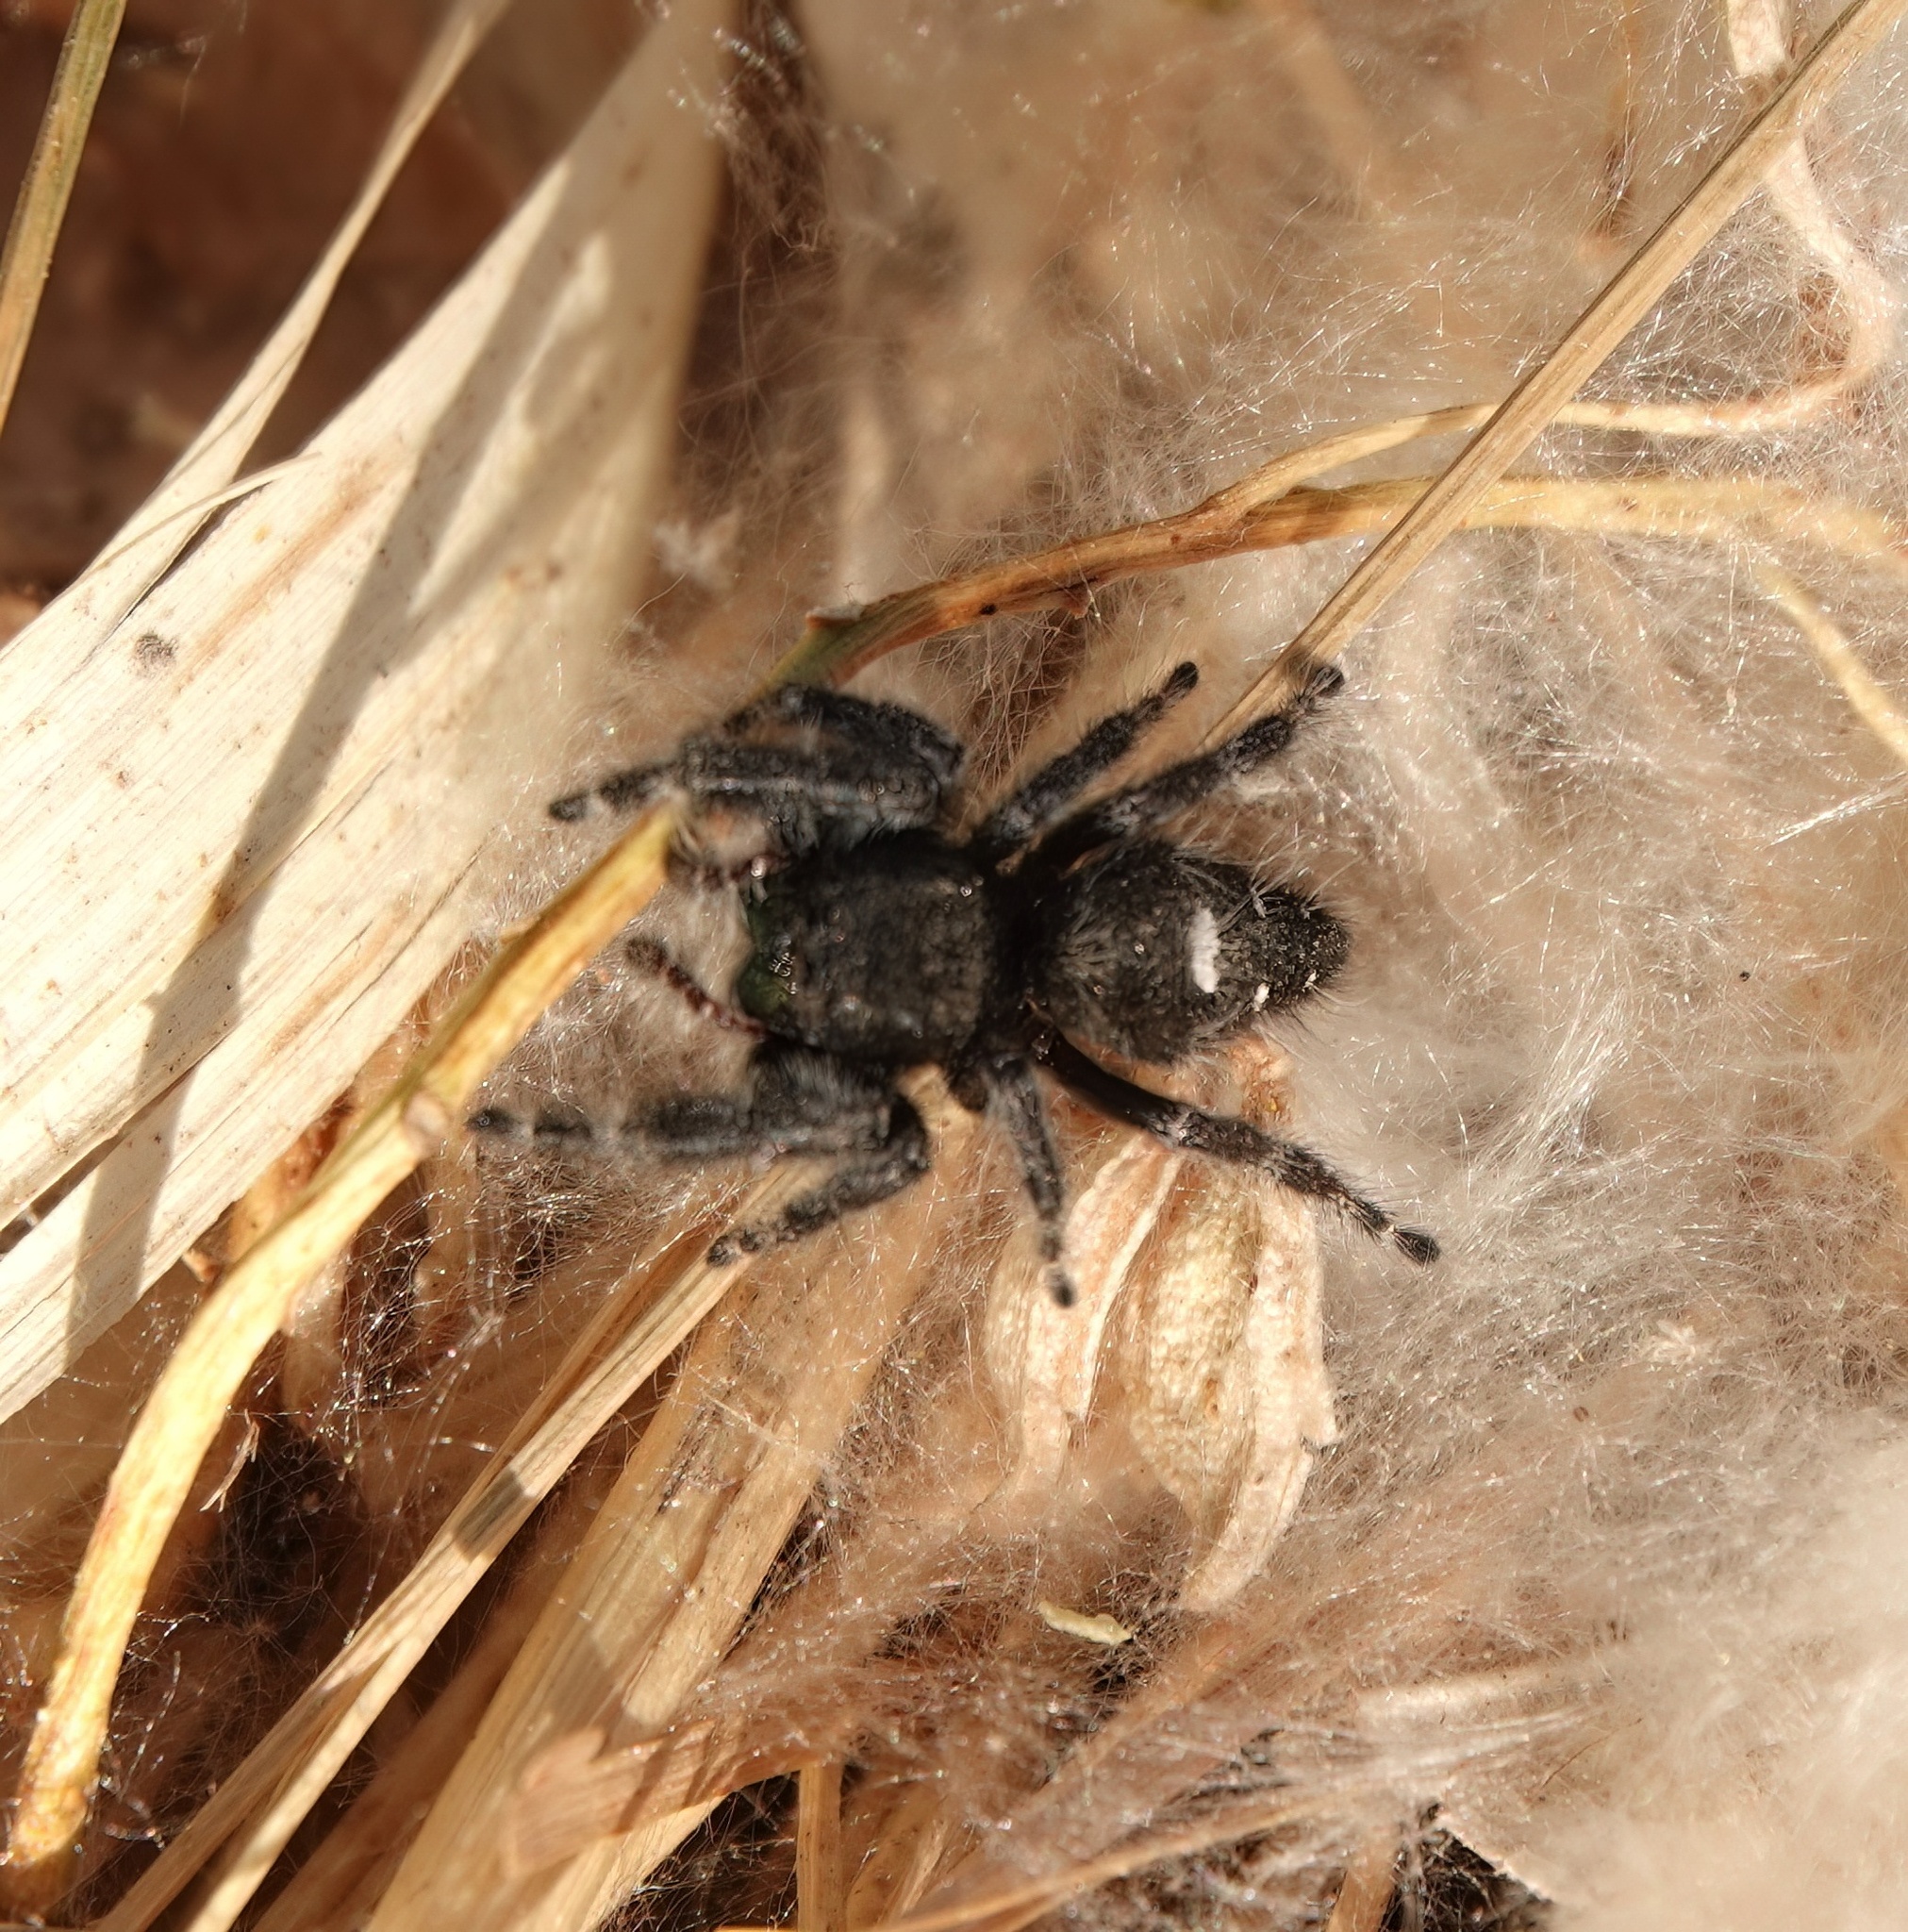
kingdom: Animalia
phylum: Arthropoda
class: Arachnida
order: Araneae
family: Salticidae
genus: Phidippus
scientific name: Phidippus audax
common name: Bold jumper
